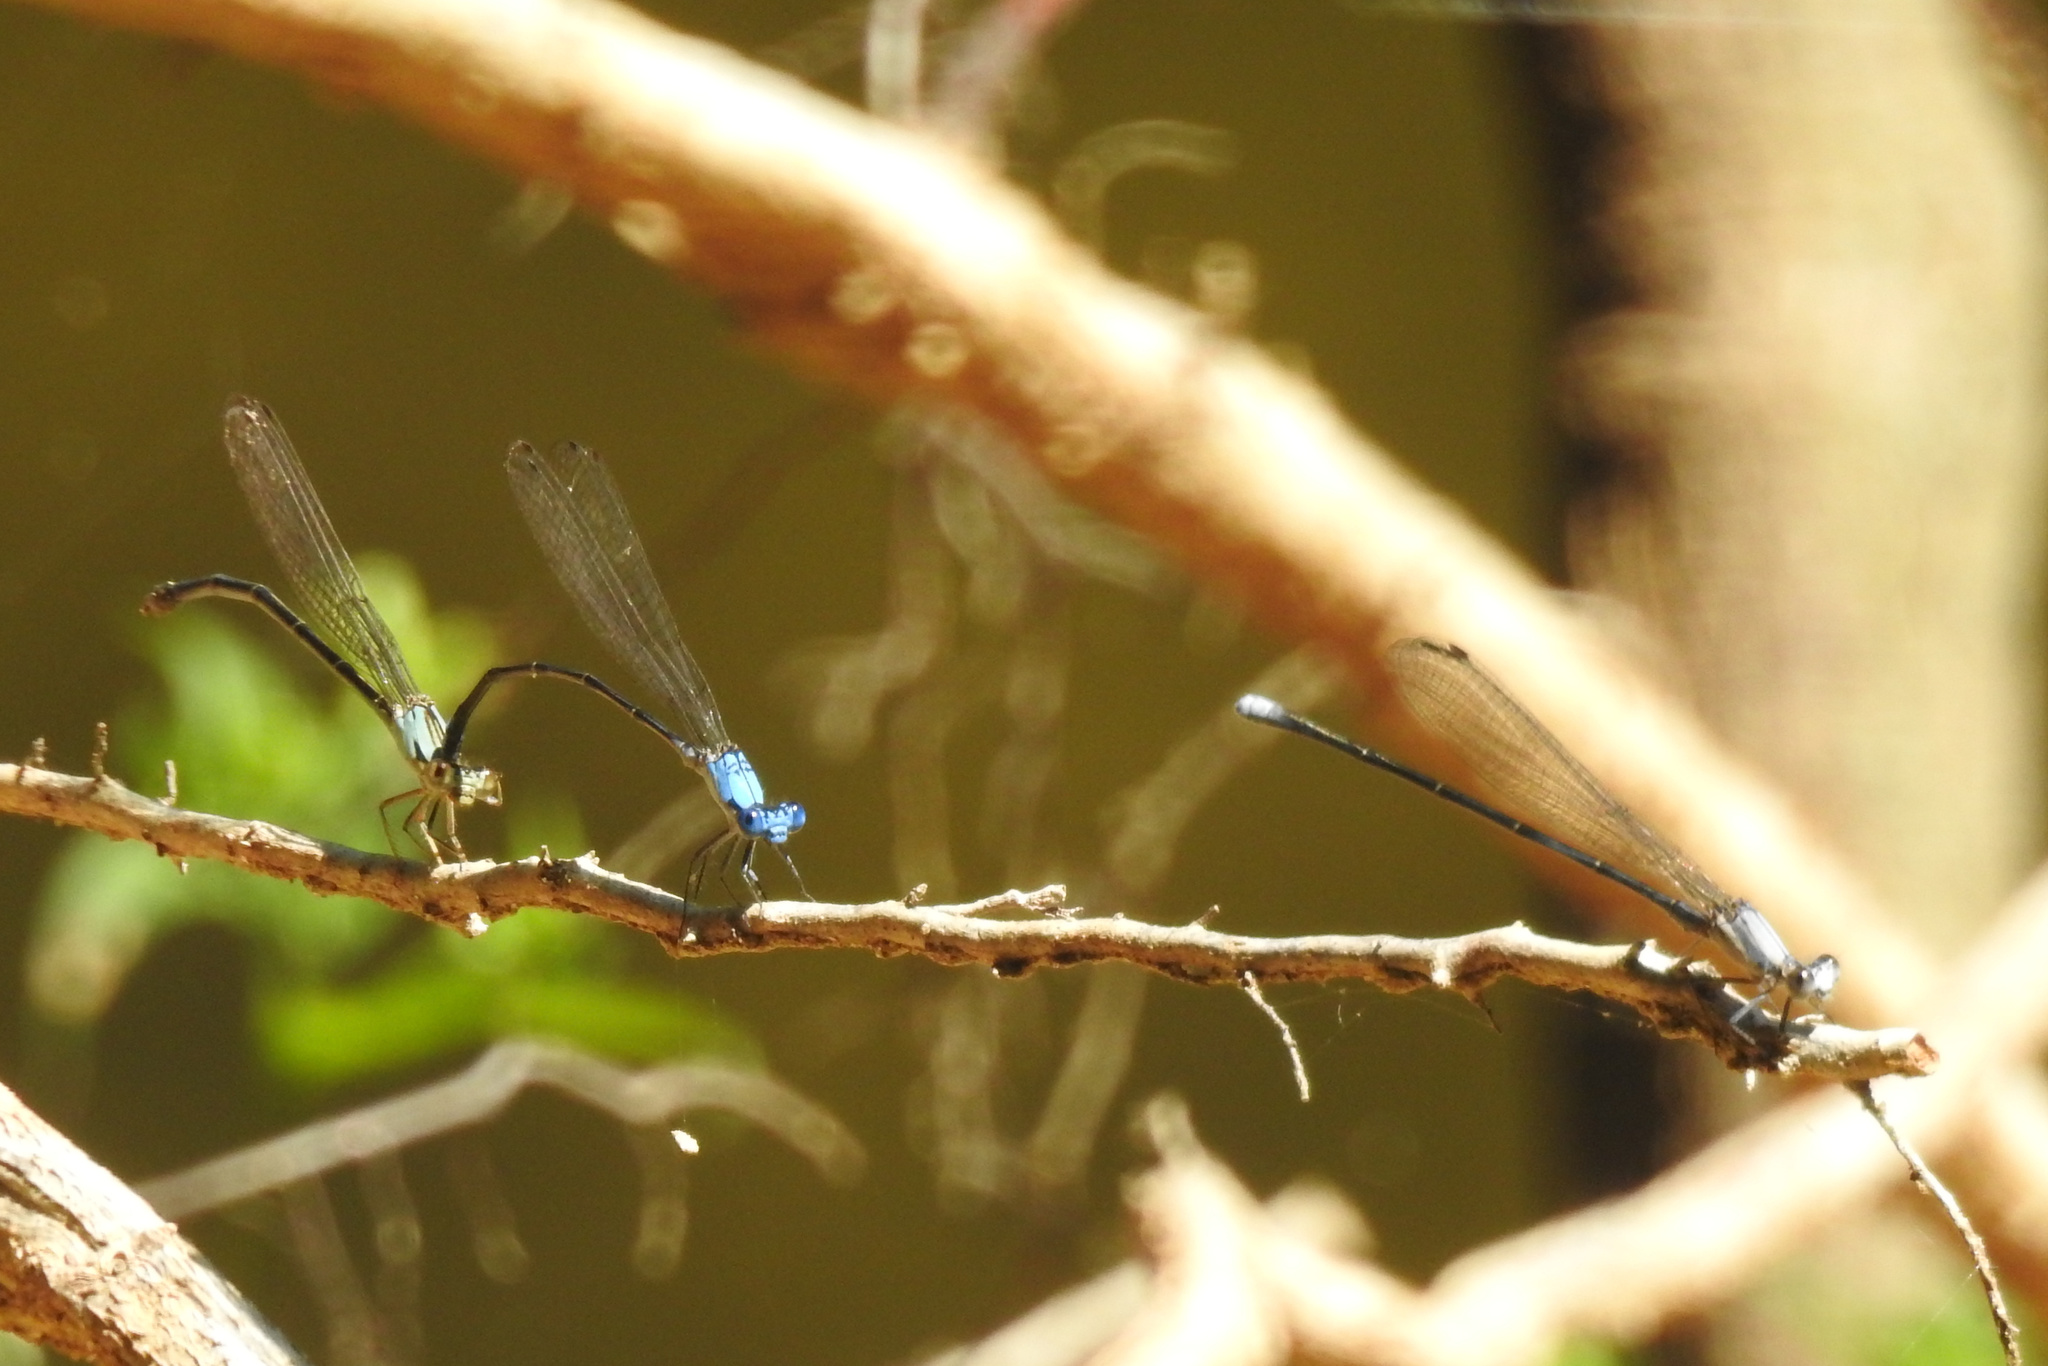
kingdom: Animalia
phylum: Arthropoda
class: Insecta
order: Odonata
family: Coenagrionidae
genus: Argia
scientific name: Argia apicalis
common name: Blue-fronted dancer
